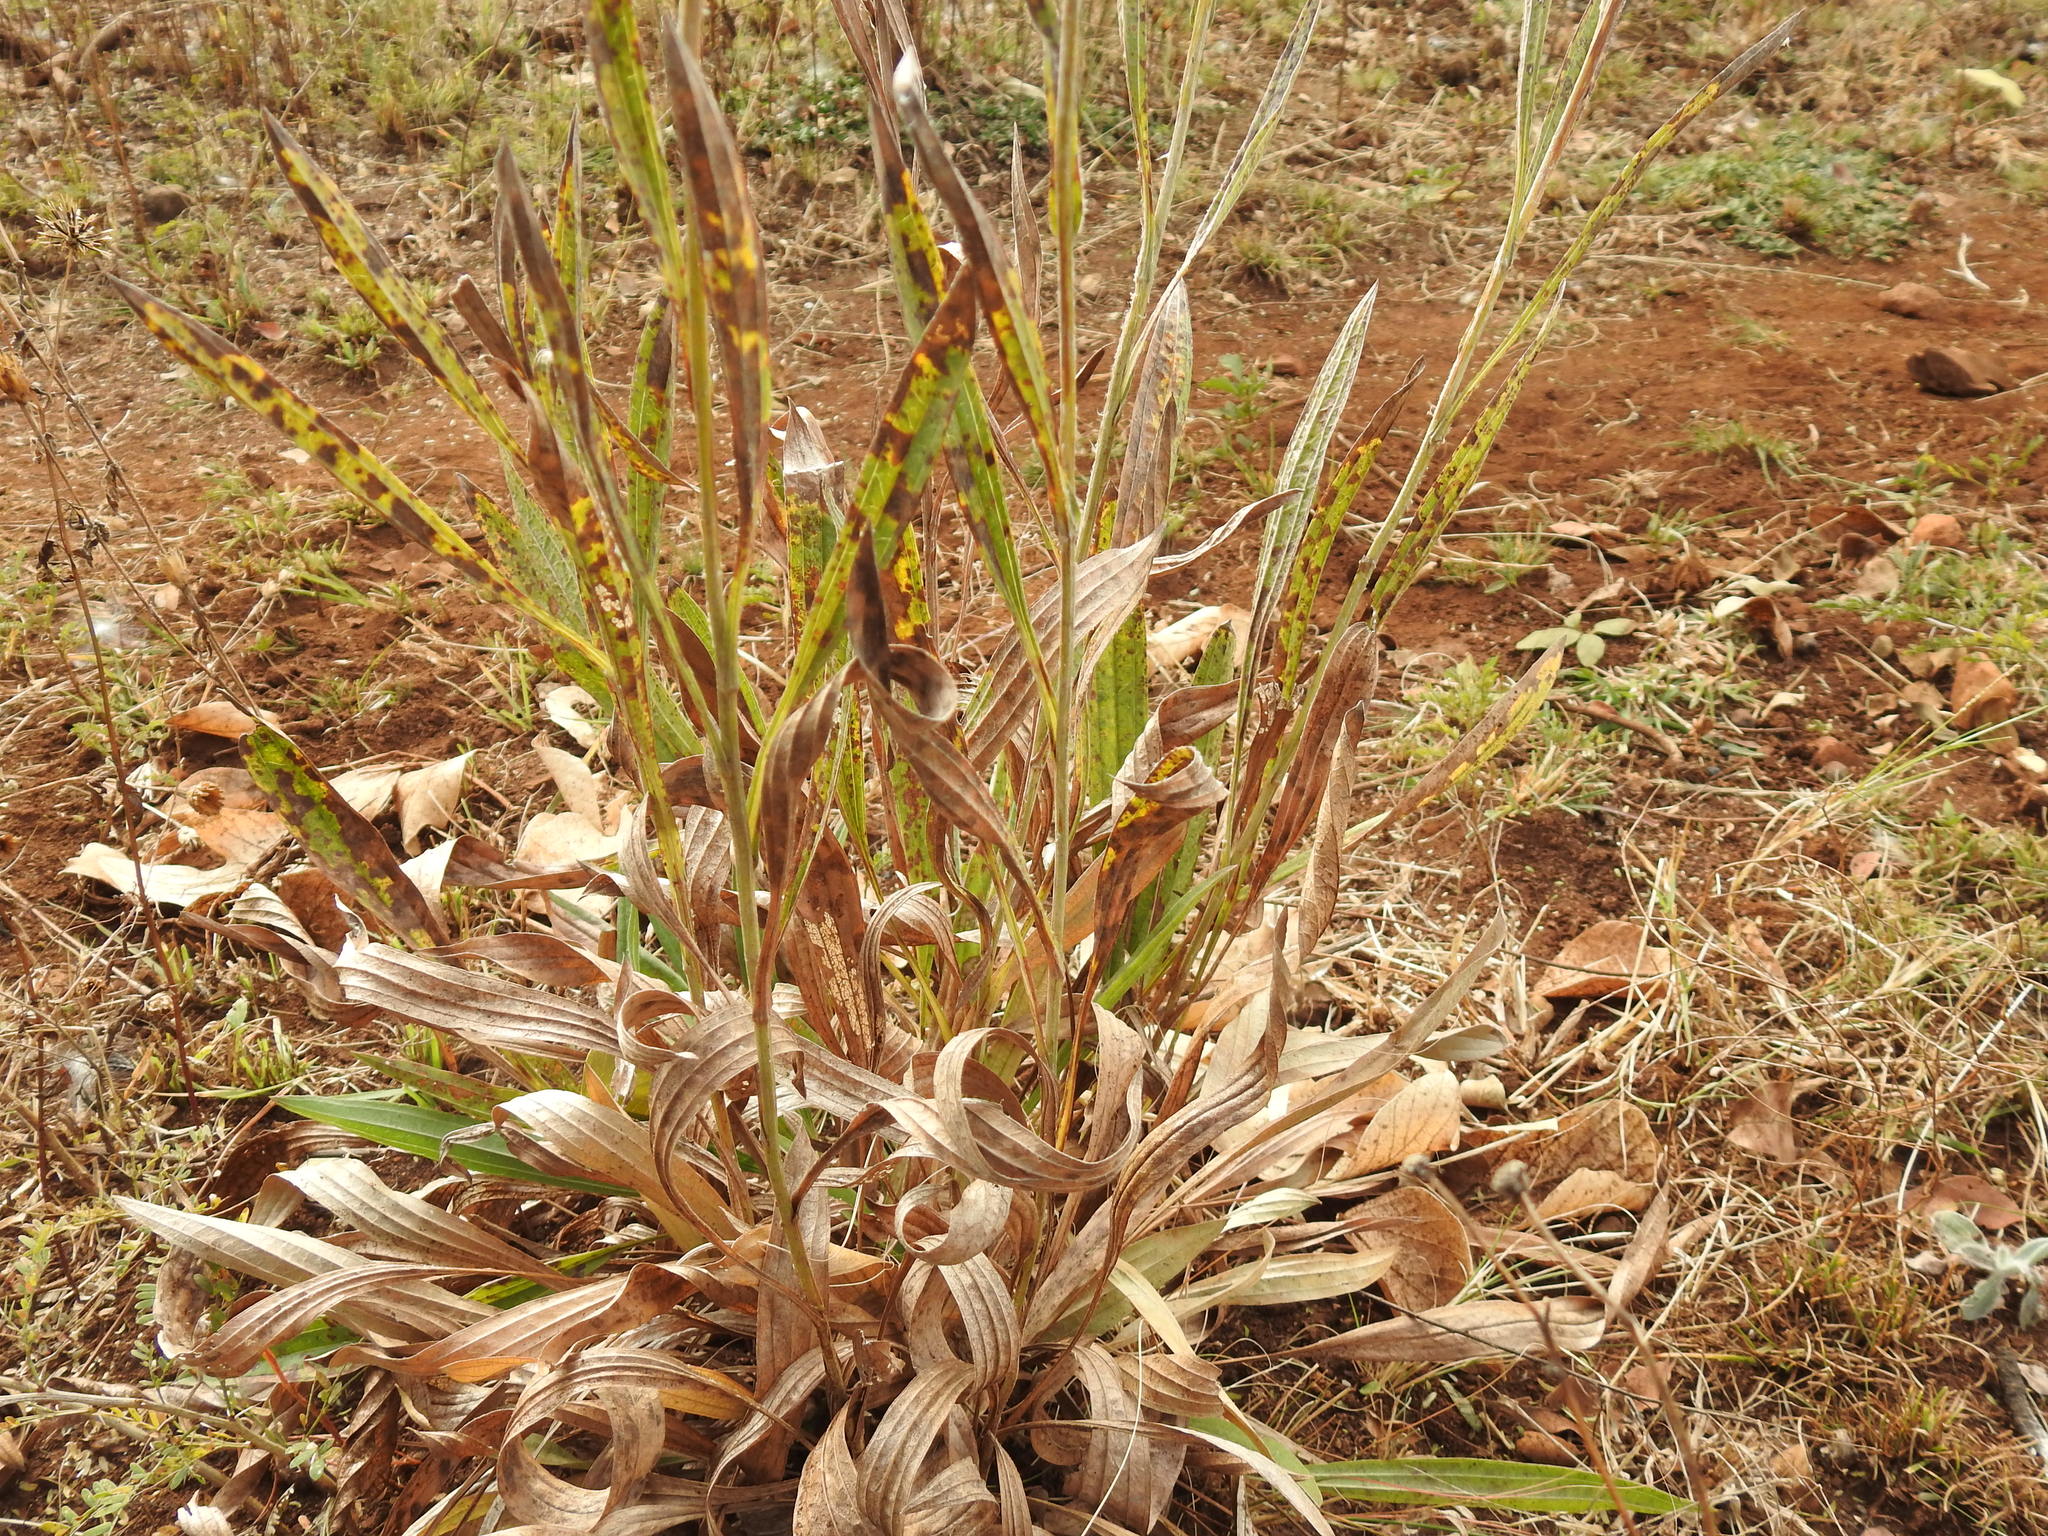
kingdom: Plantae
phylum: Tracheophyta
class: Magnoliopsida
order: Asterales
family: Asteraceae
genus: Helichrysum
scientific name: Helichrysum nudifolium
